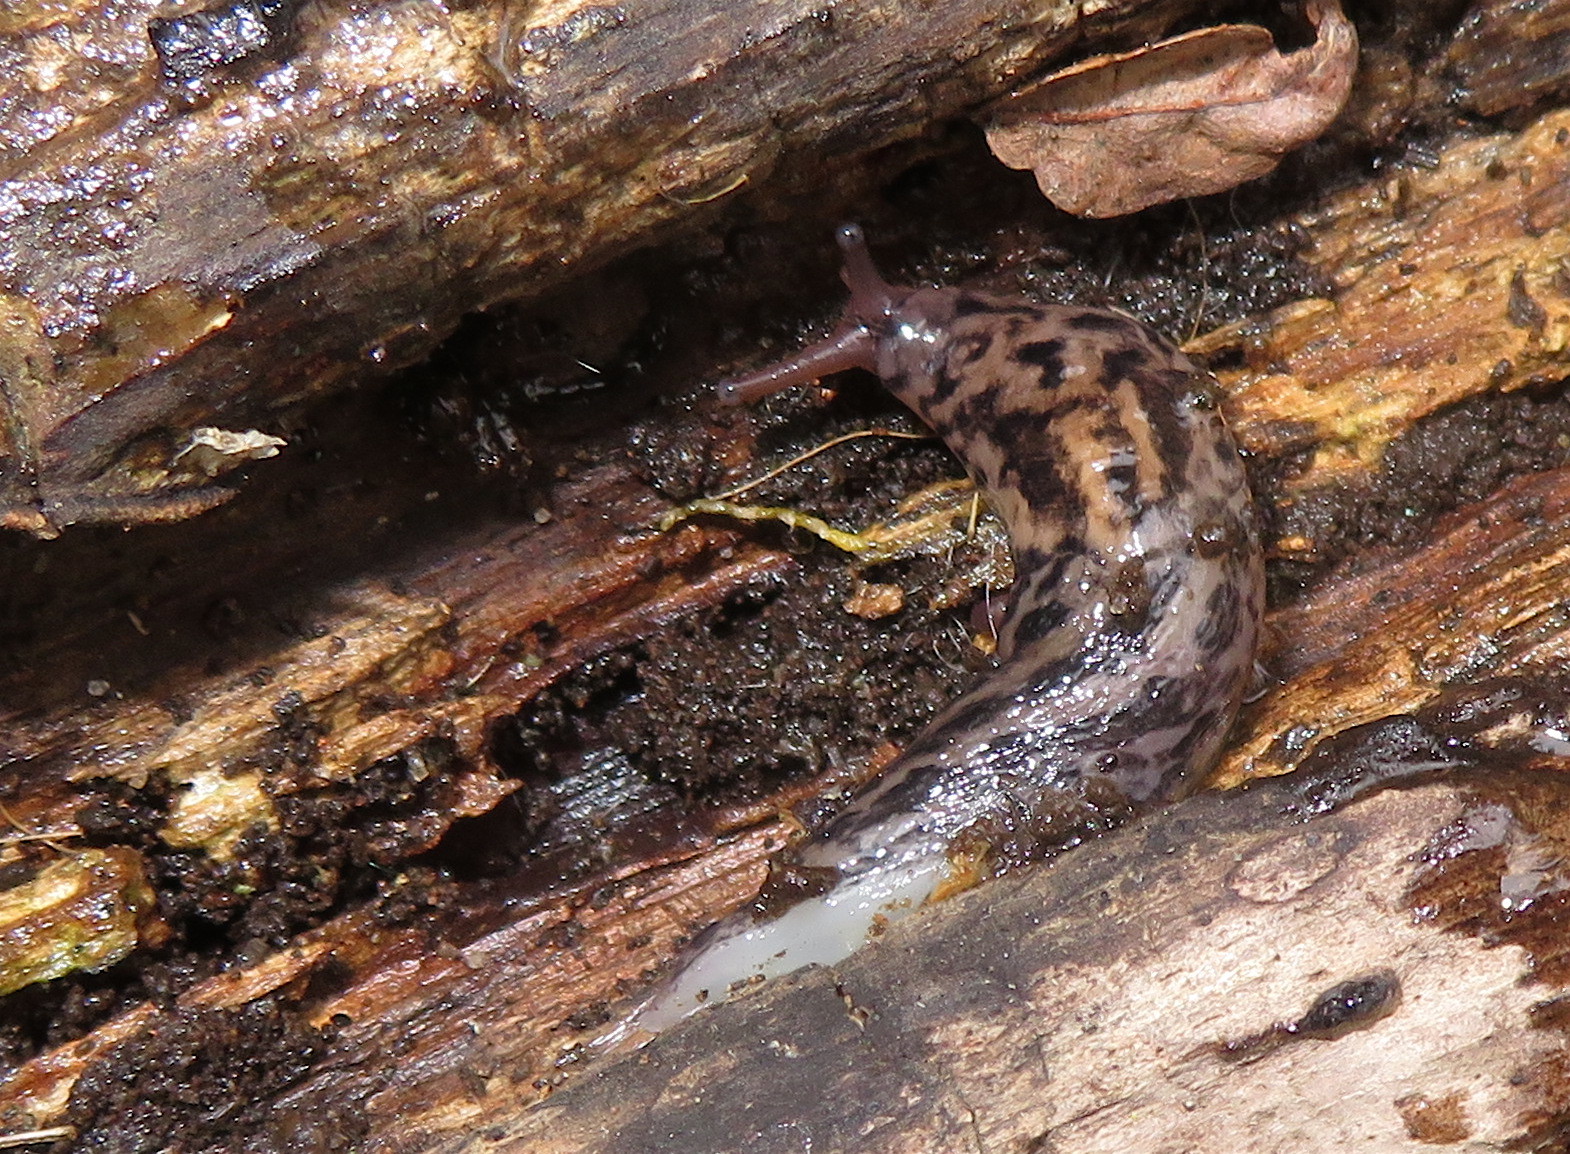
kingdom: Animalia
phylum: Mollusca
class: Gastropoda
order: Stylommatophora
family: Limacidae
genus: Limax
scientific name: Limax maximus
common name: Great grey slug
